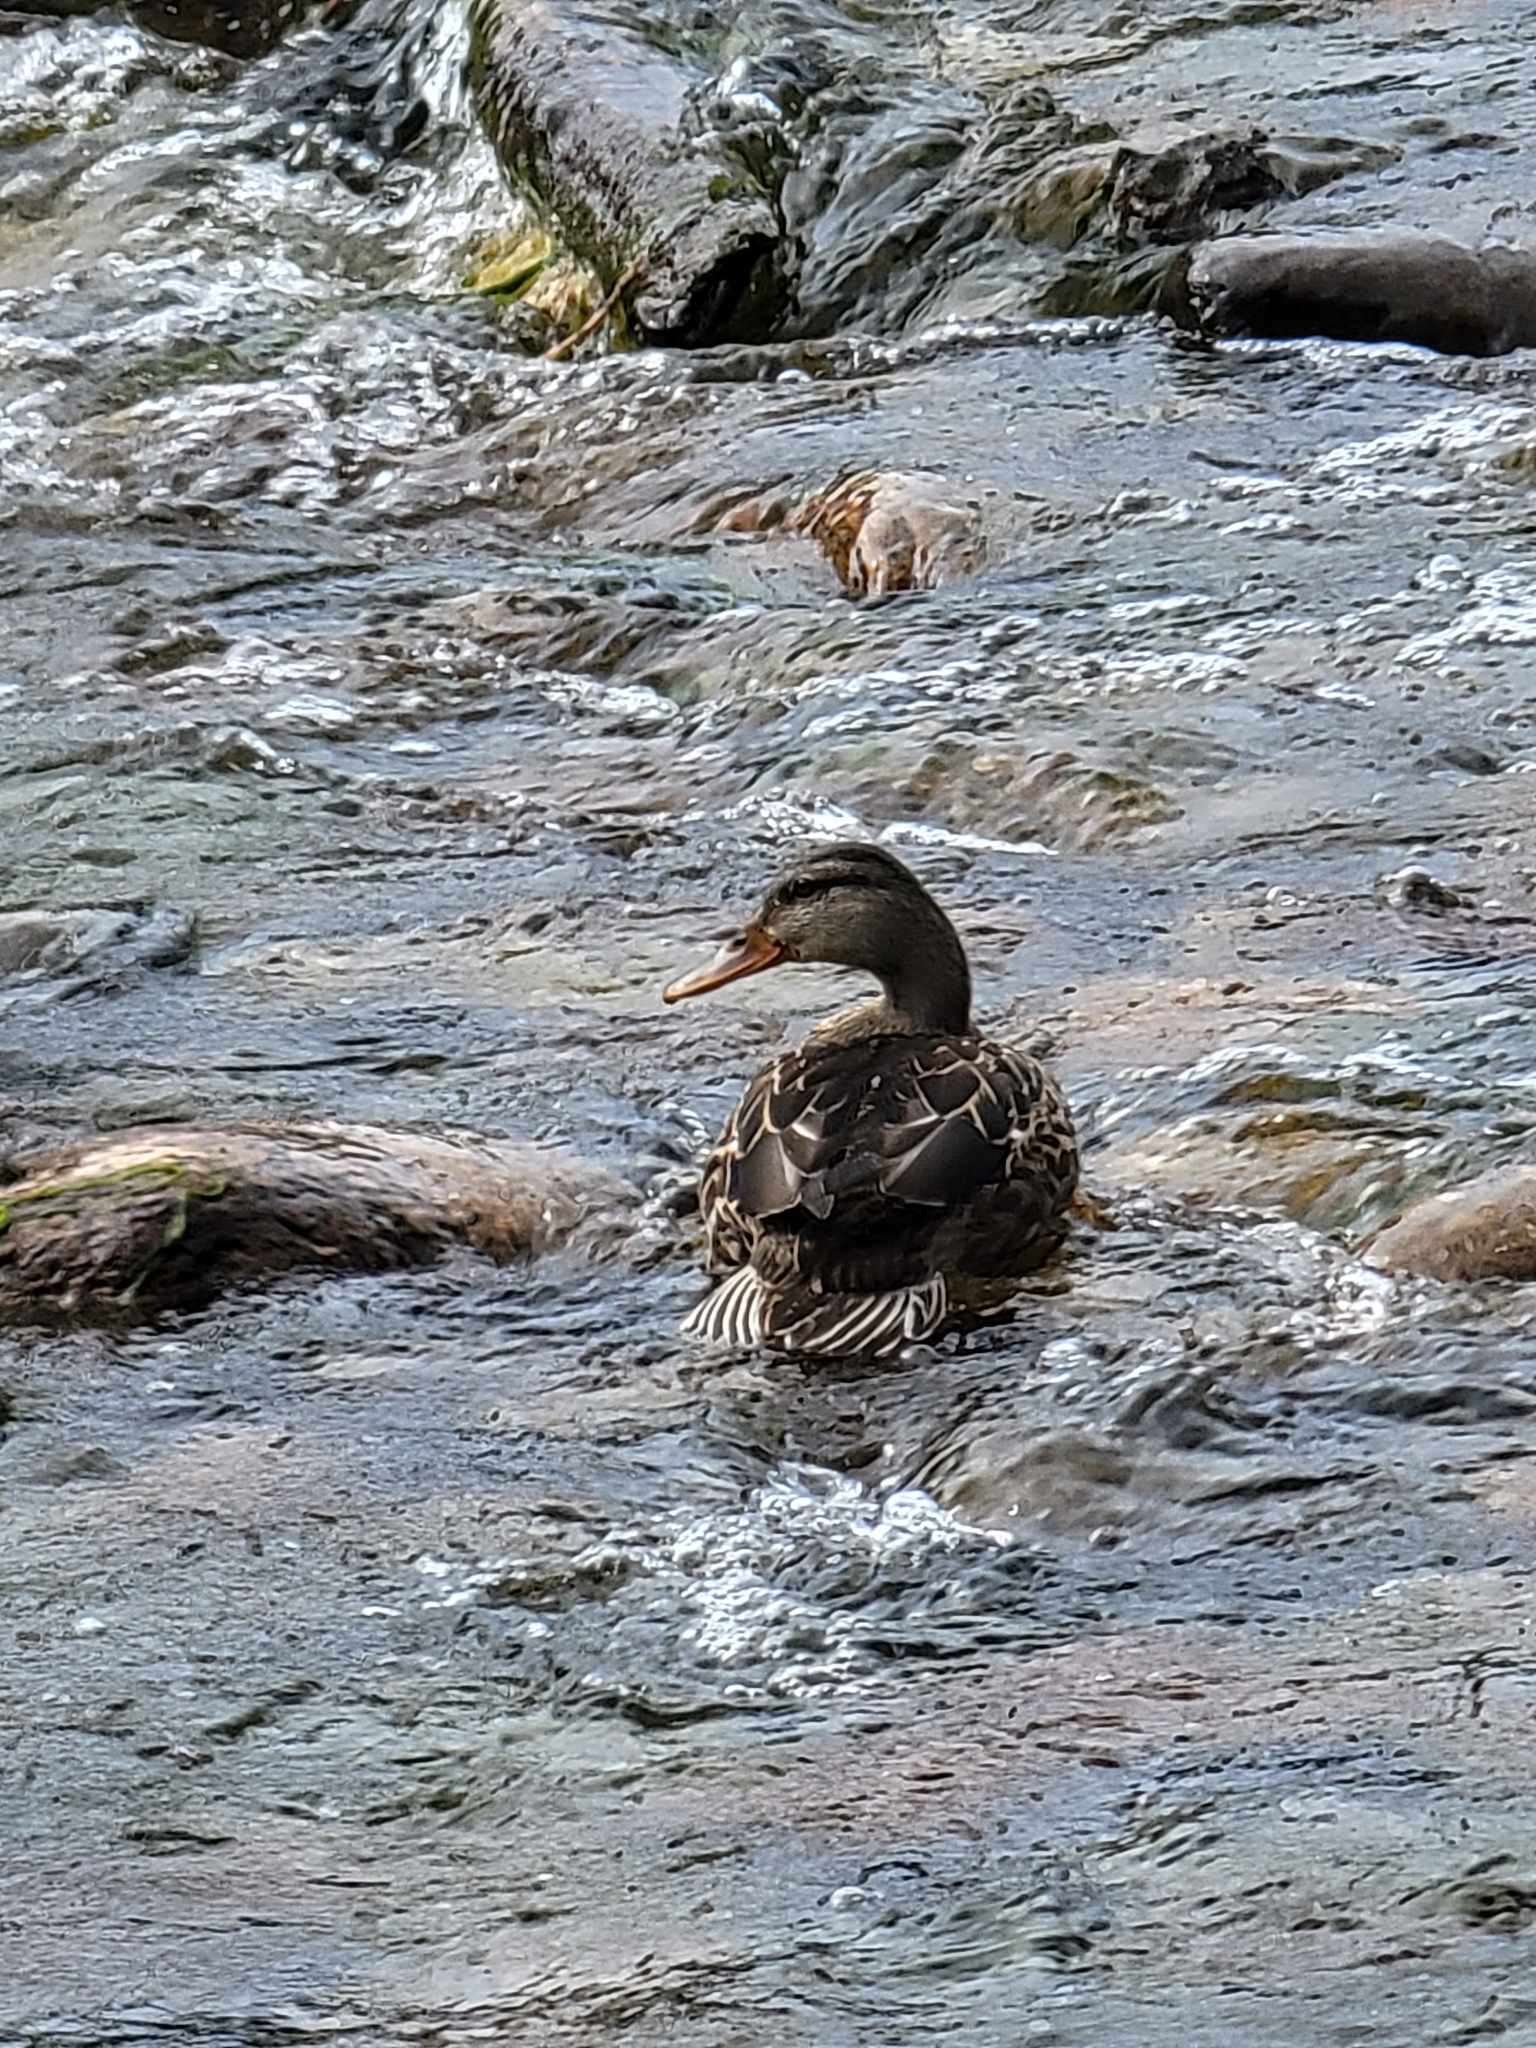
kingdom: Animalia
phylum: Chordata
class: Aves
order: Anseriformes
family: Anatidae
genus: Anas
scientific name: Anas platyrhynchos
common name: Mallard
